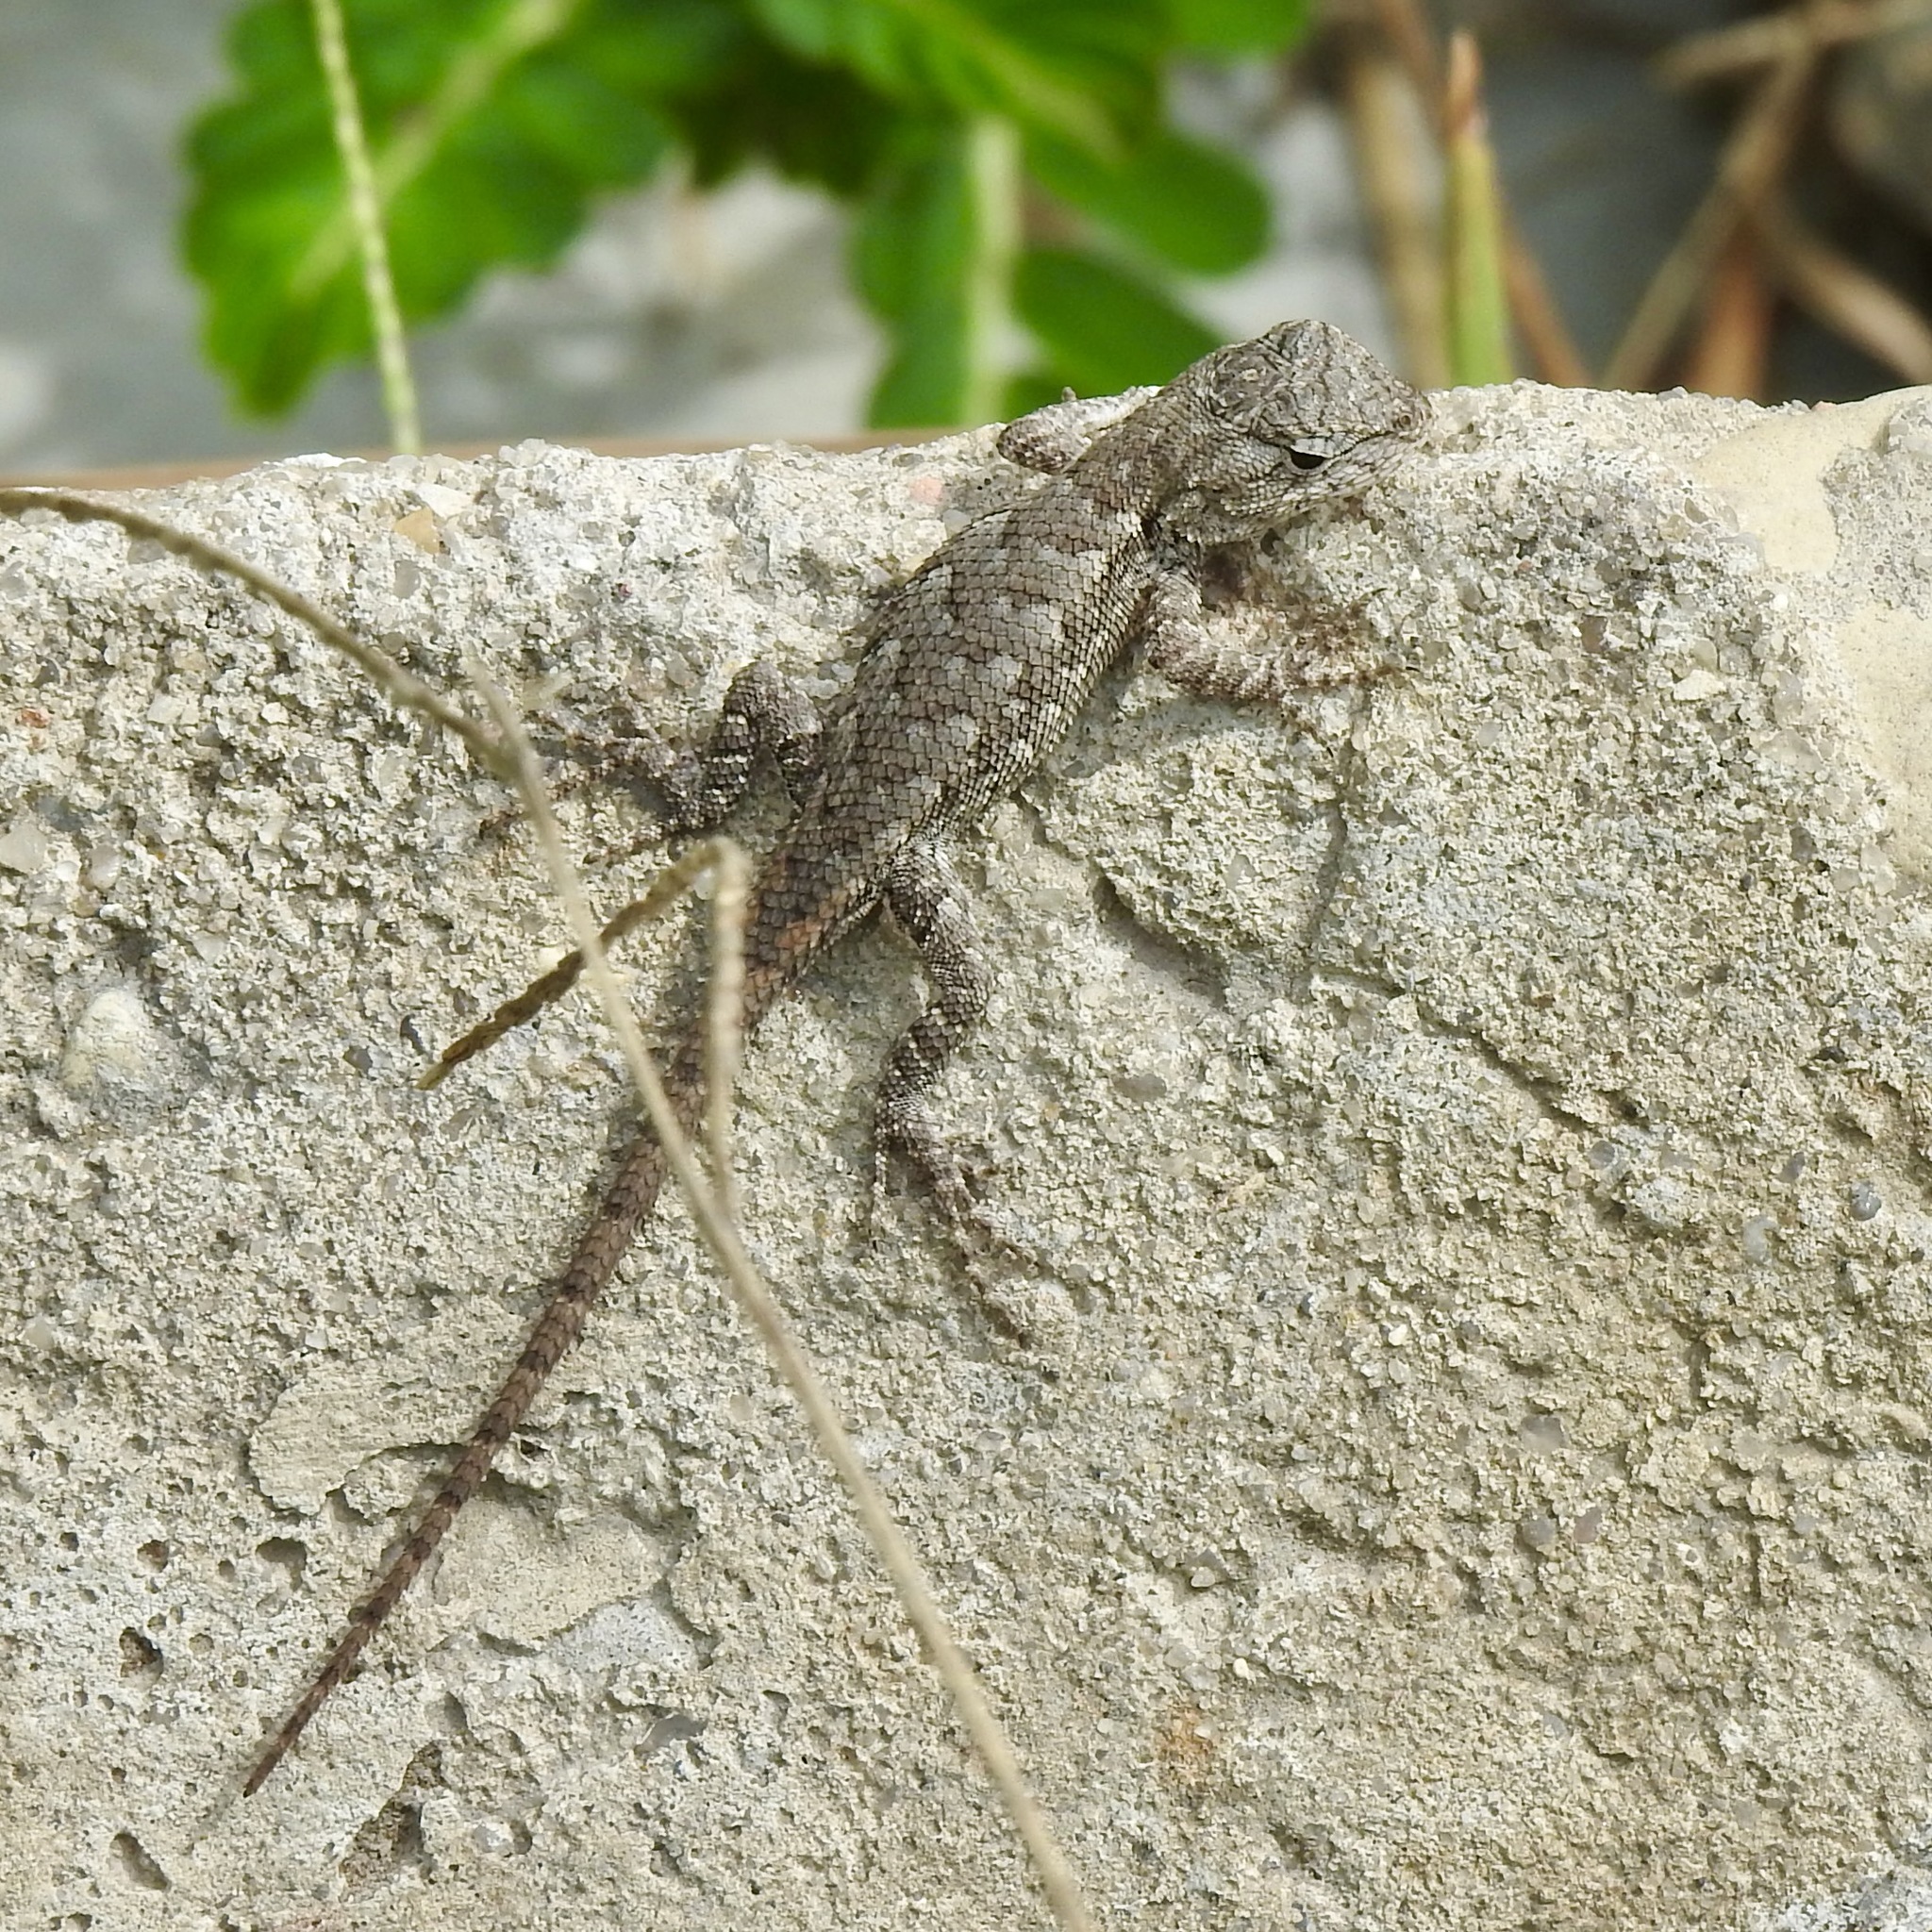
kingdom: Animalia
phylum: Chordata
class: Squamata
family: Phrynosomatidae
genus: Sceloporus
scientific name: Sceloporus consobrinus
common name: Southern prairie lizard
